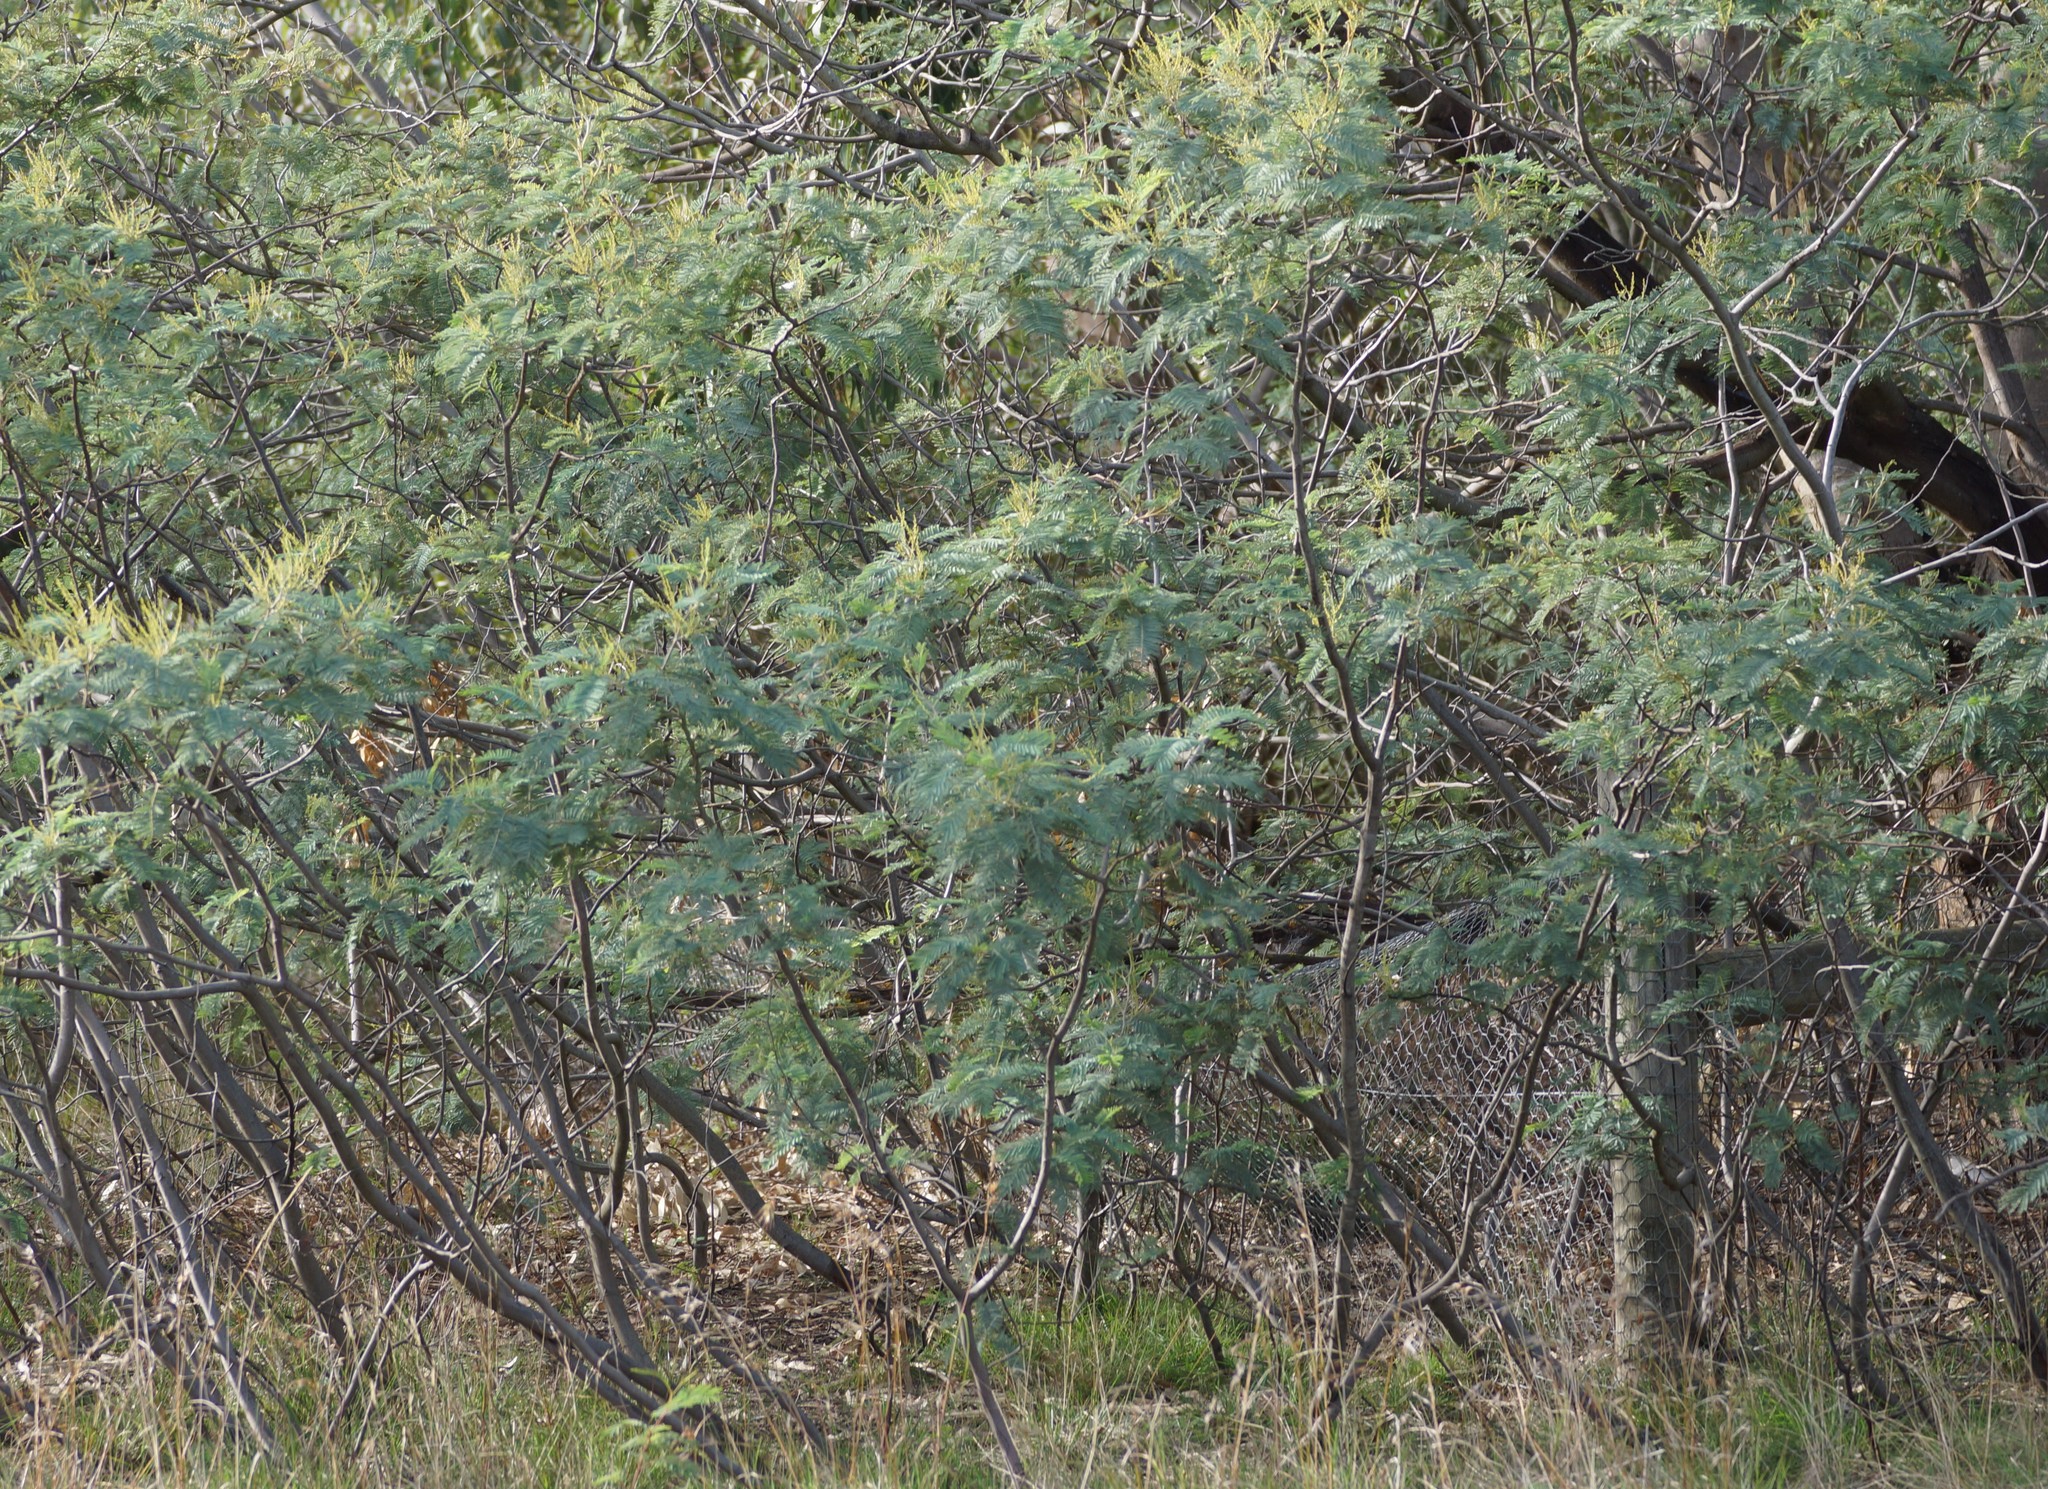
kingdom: Plantae
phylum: Tracheophyta
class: Magnoliopsida
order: Fabales
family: Fabaceae
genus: Acacia
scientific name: Acacia dealbata
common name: Silver wattle
